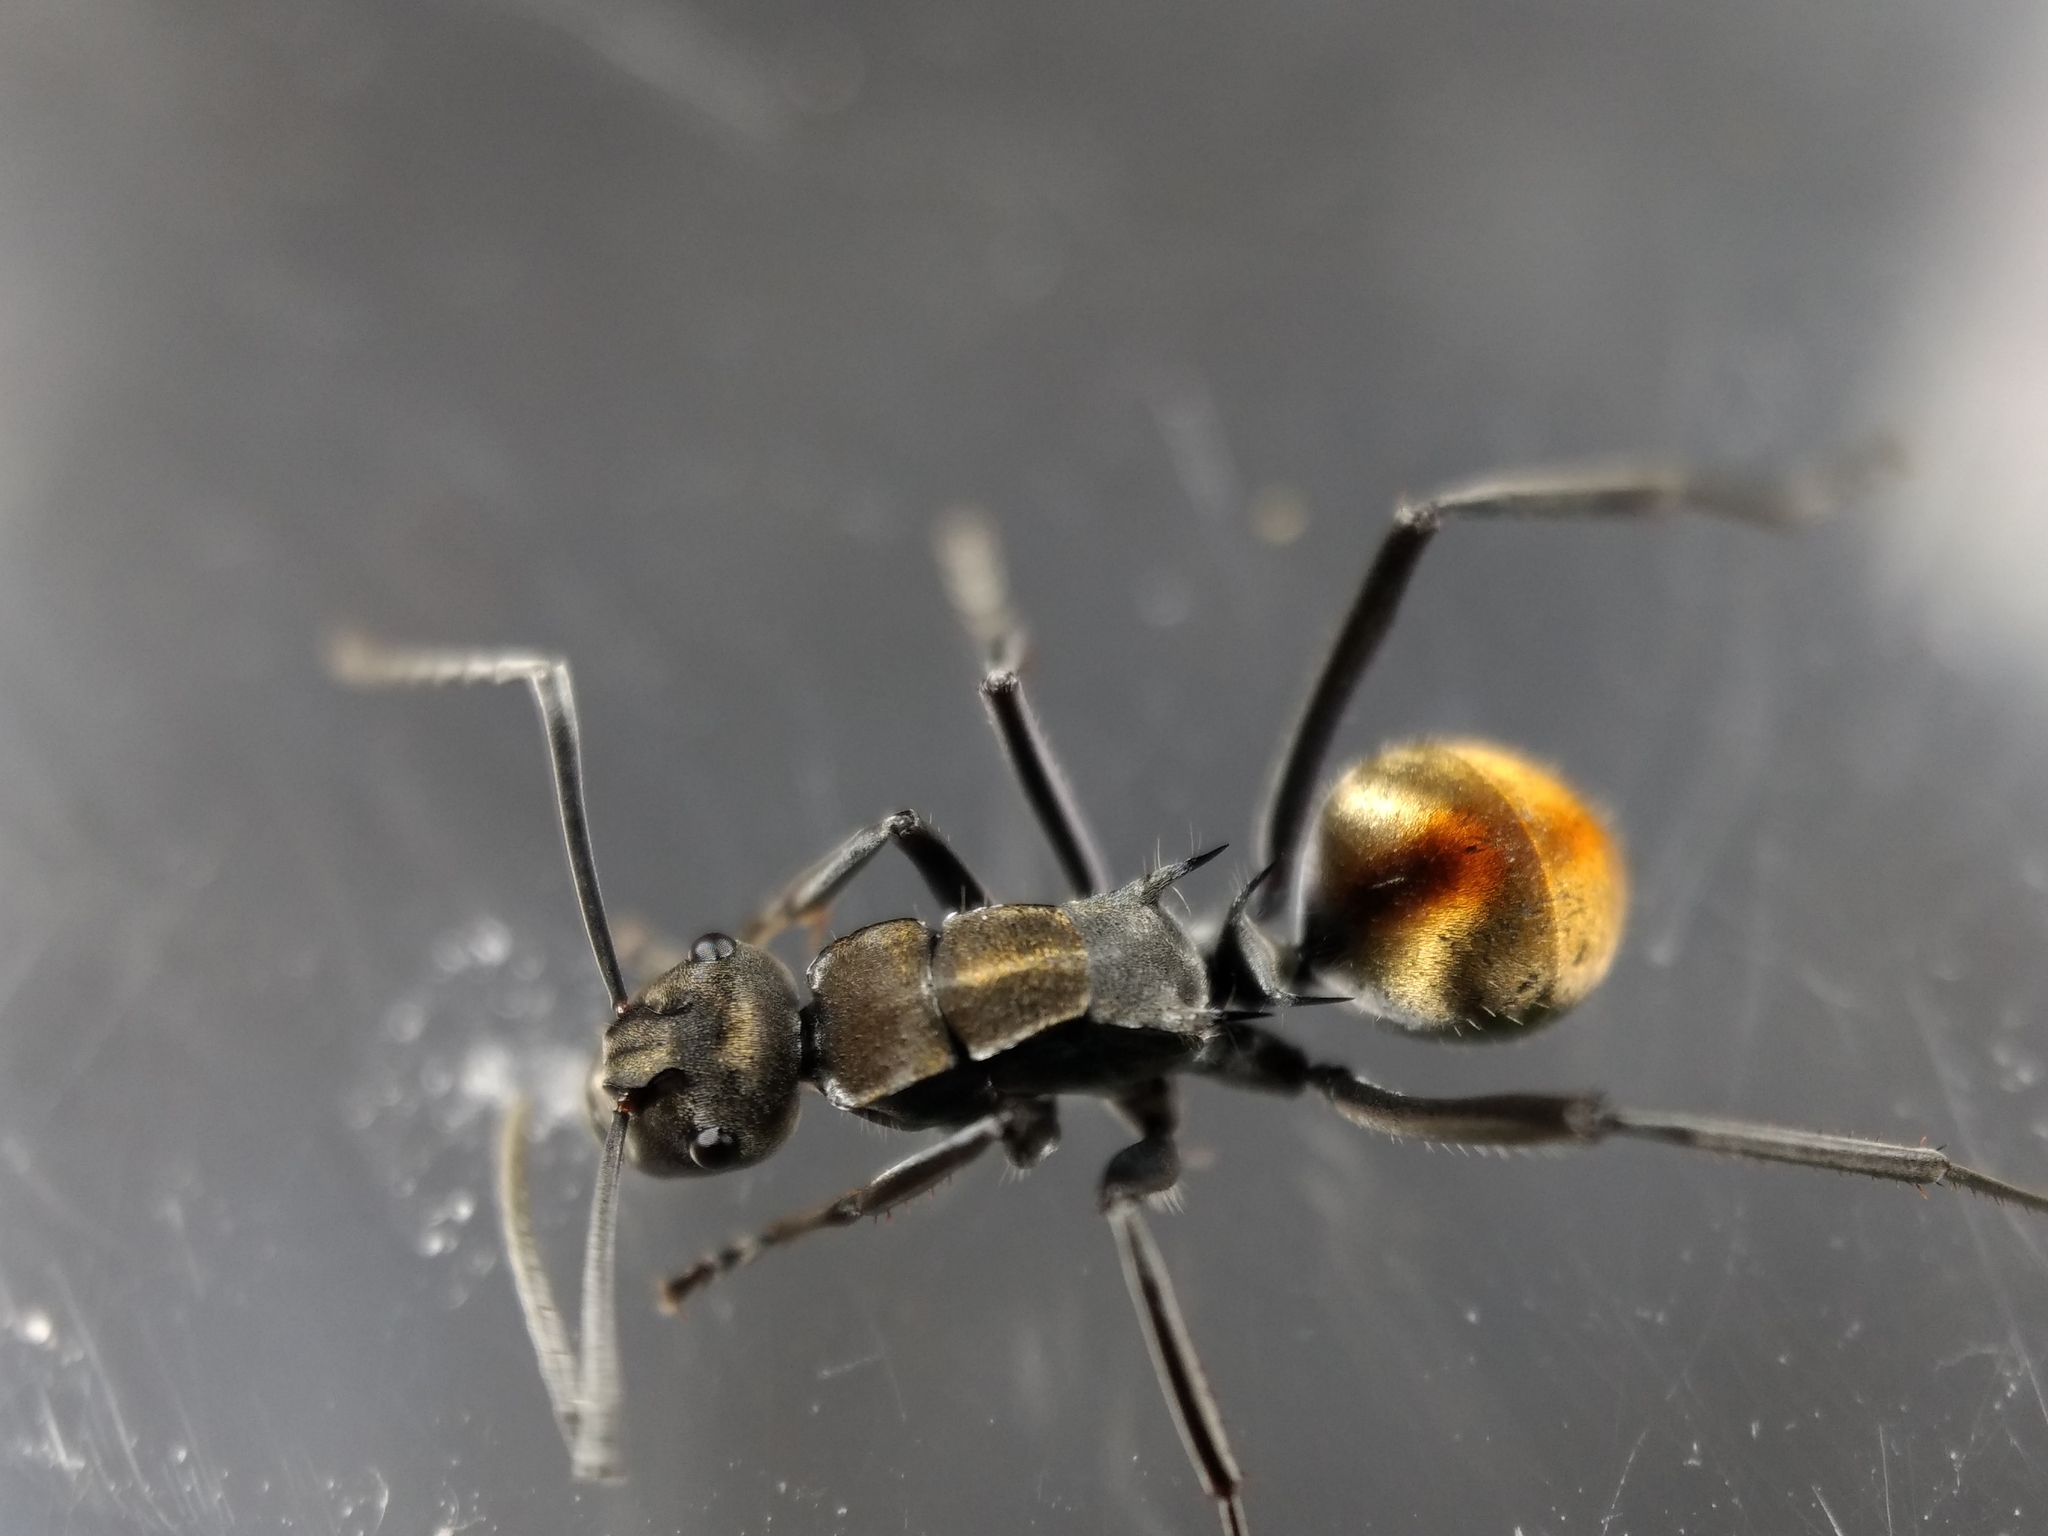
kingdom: Animalia
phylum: Arthropoda
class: Insecta
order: Hymenoptera
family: Formicidae
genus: Polyrhachis
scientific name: Polyrhachis
